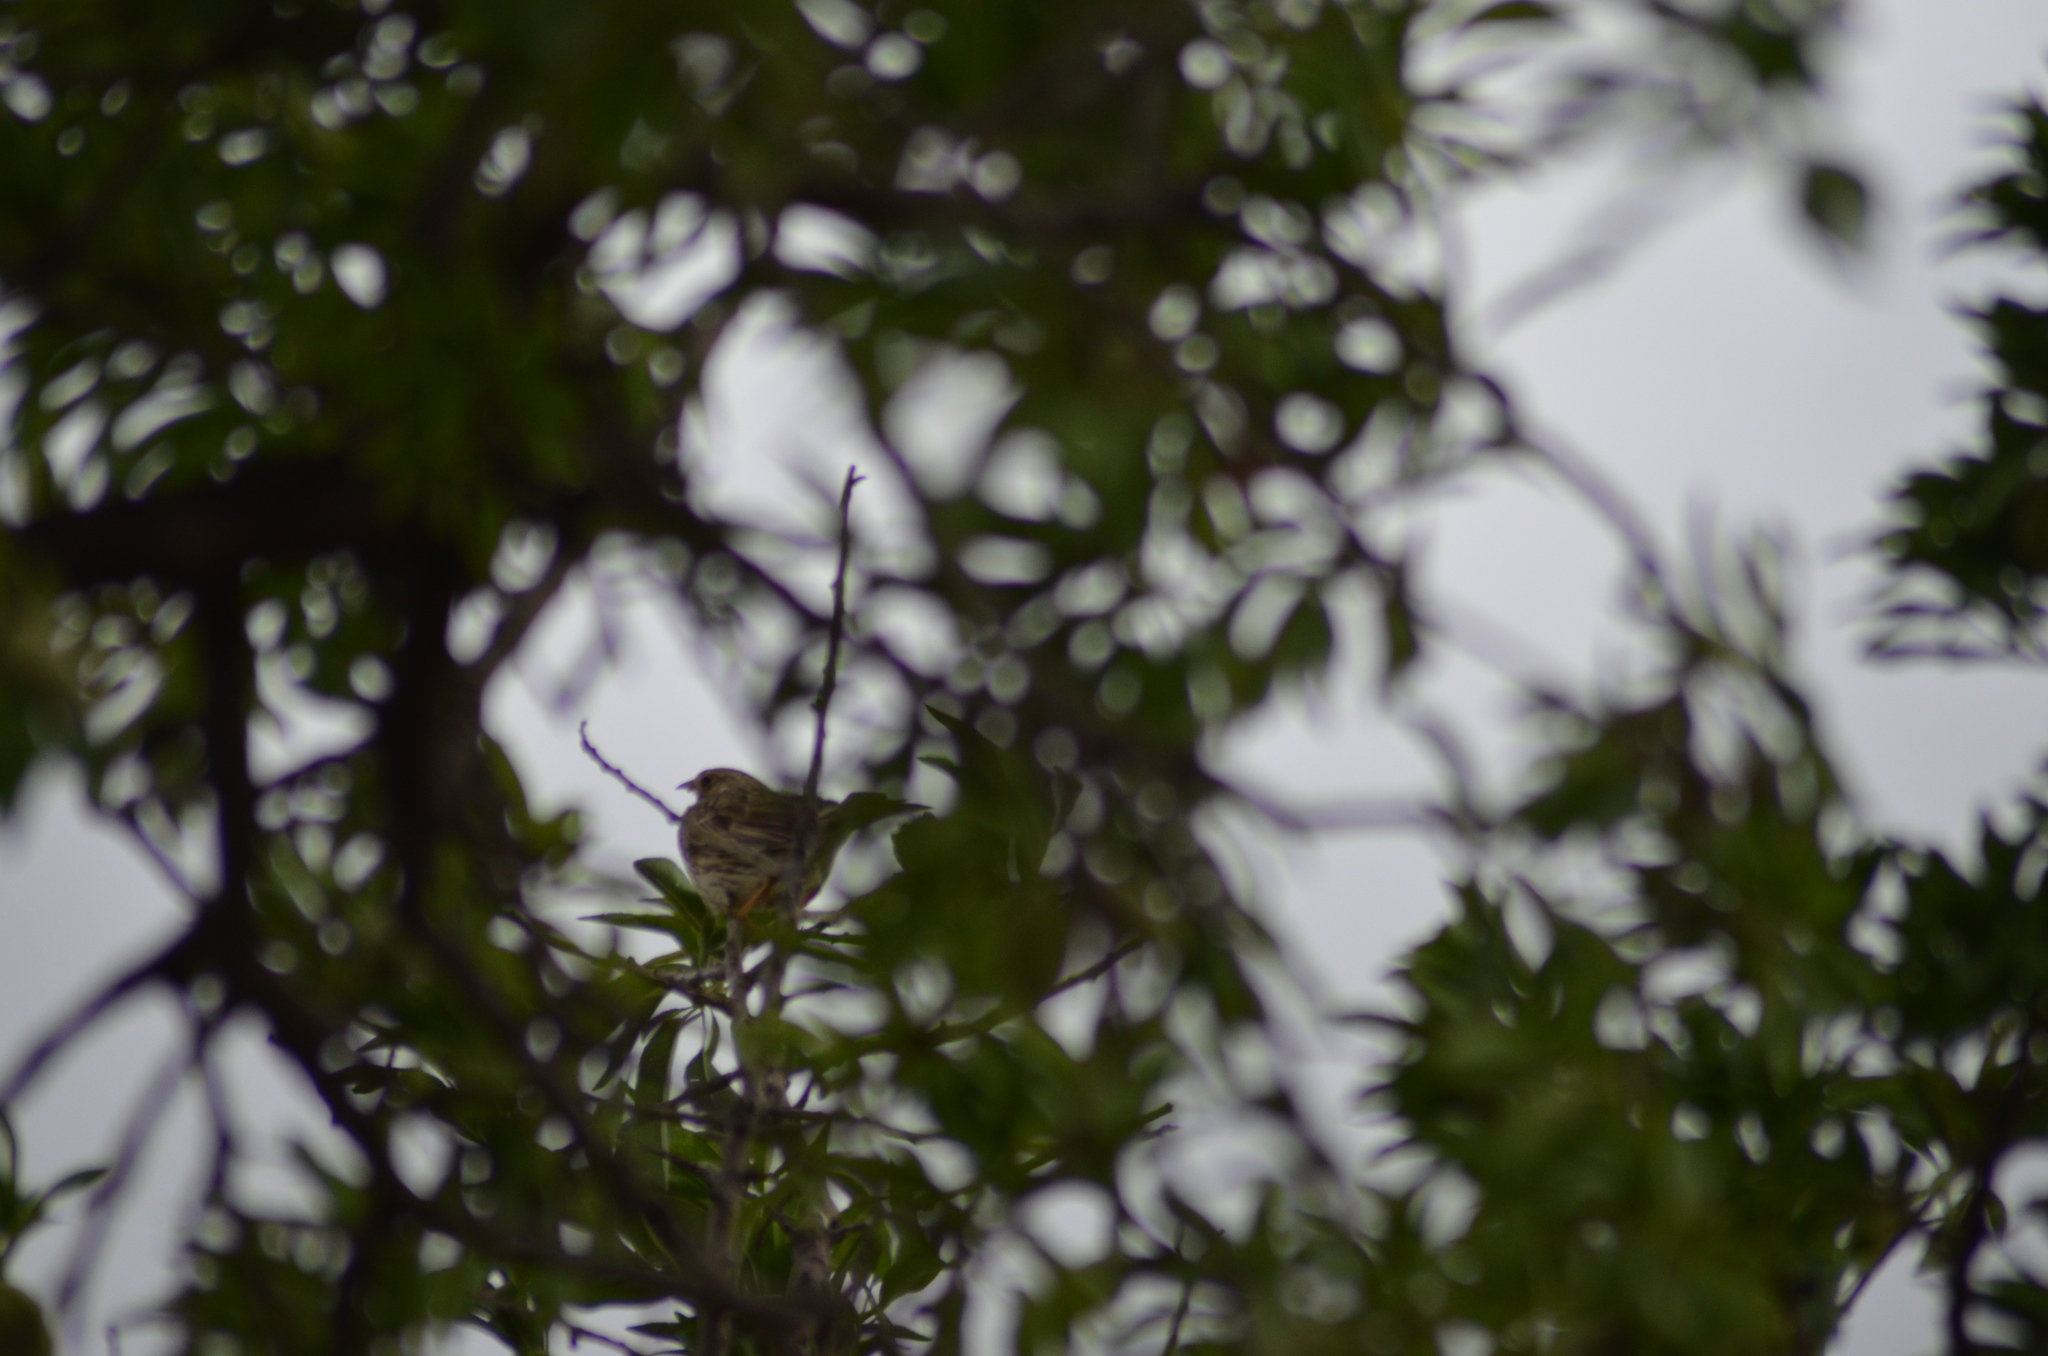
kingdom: Animalia
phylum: Chordata
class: Aves
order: Passeriformes
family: Emberizidae
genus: Emberiza
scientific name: Emberiza calandra
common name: Corn bunting
